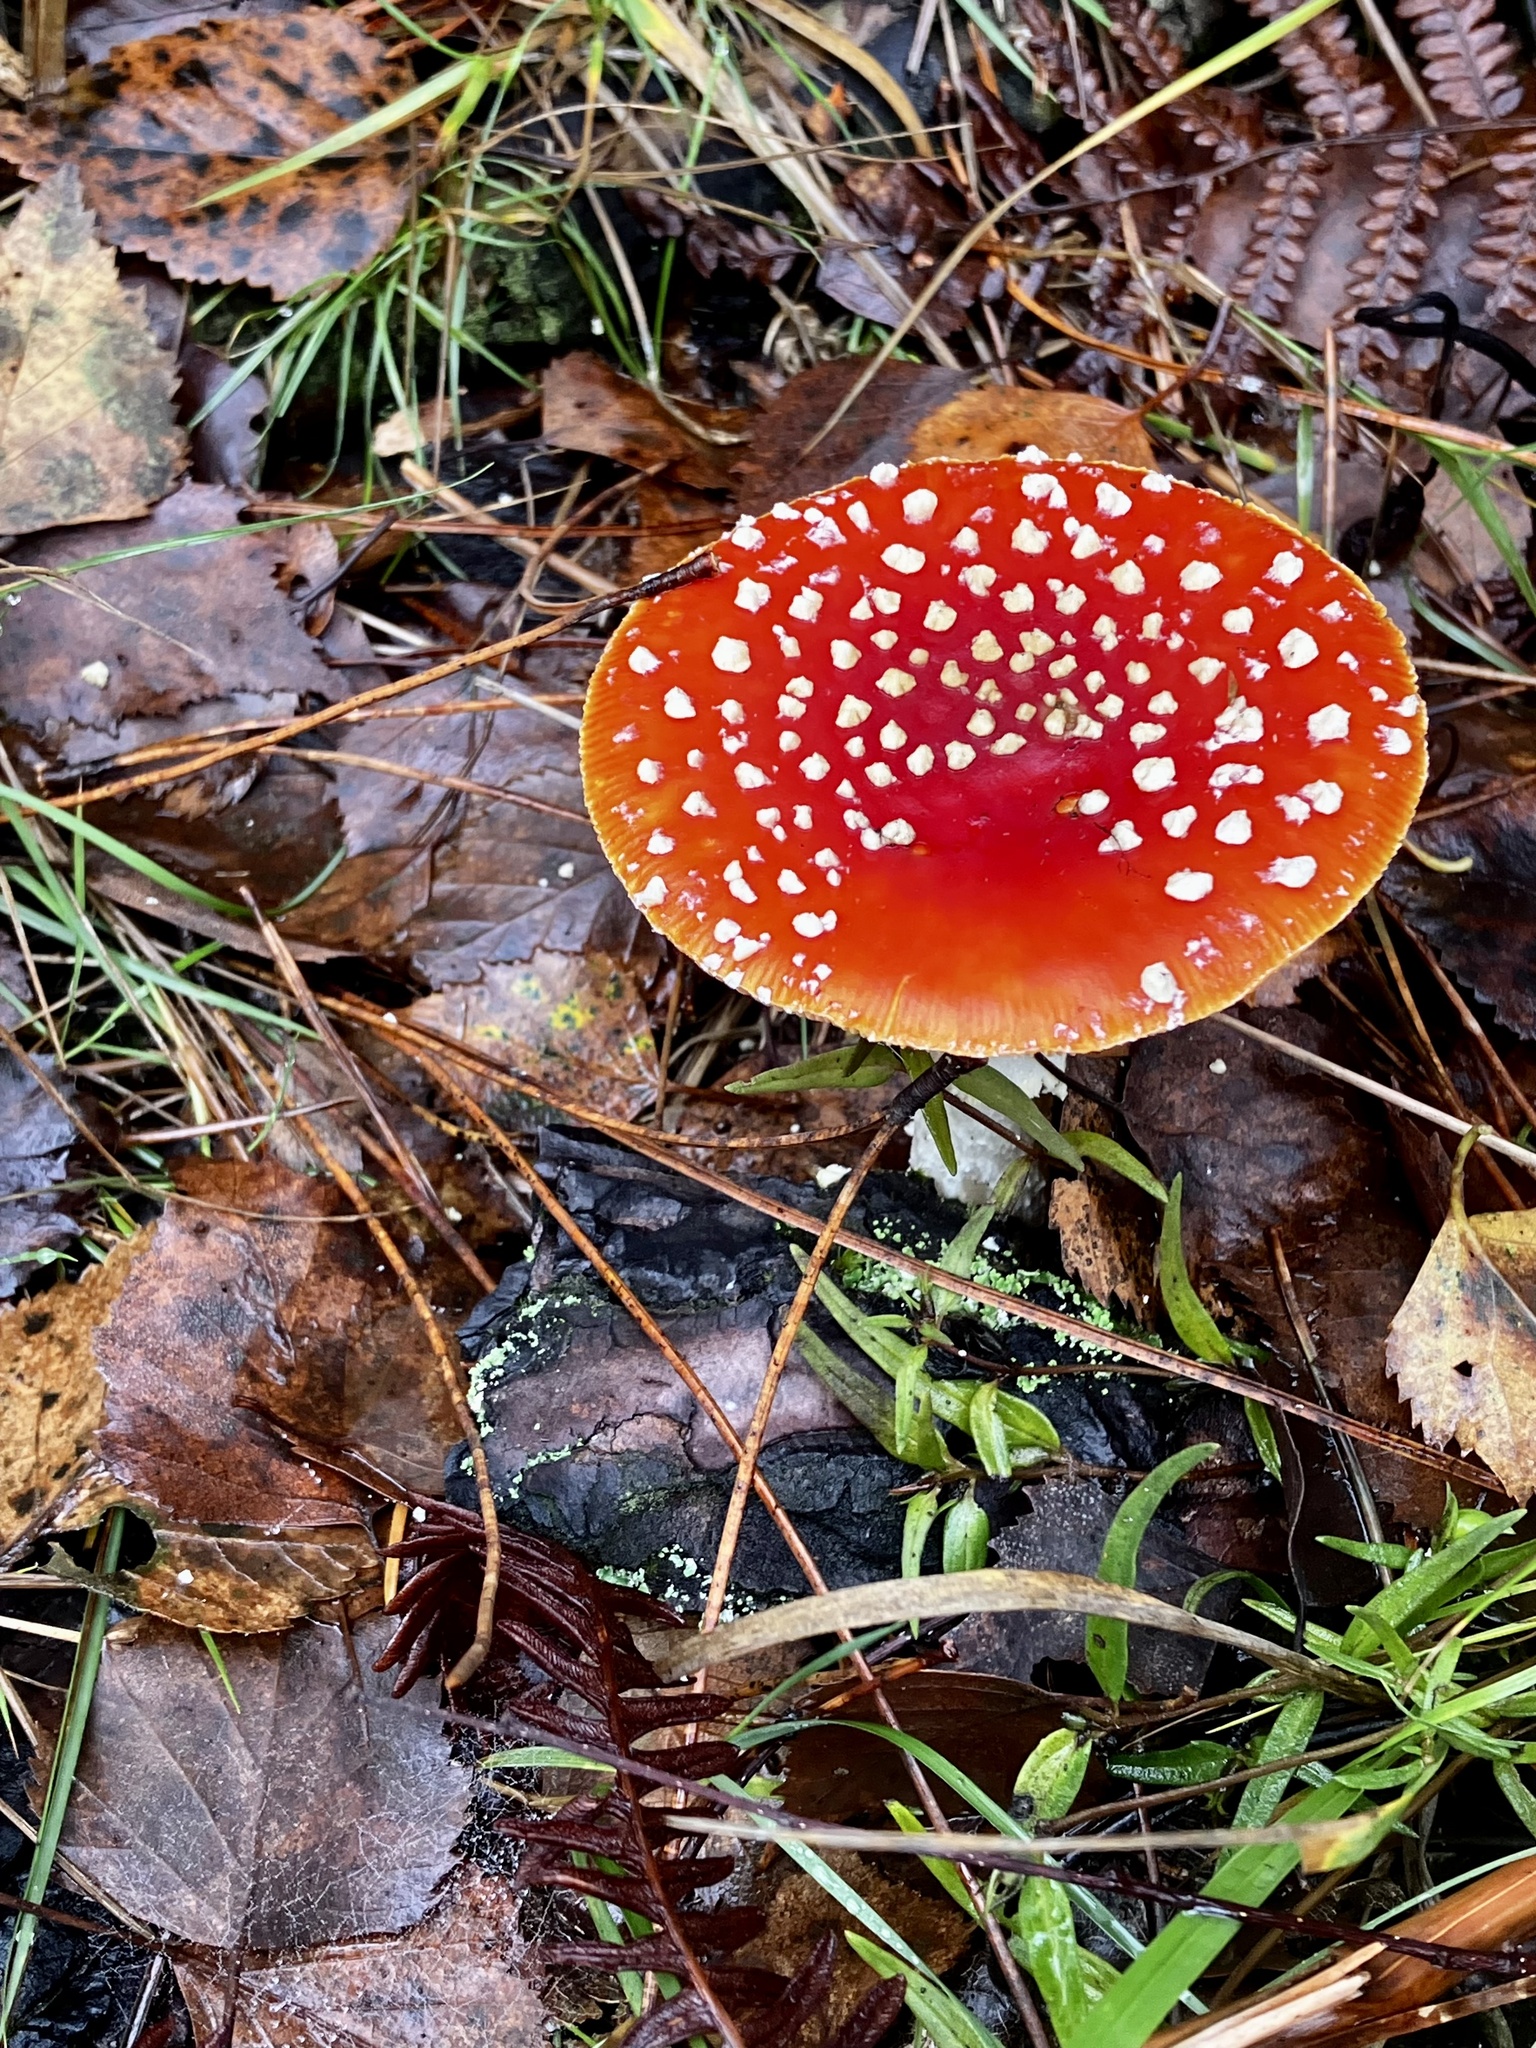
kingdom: Fungi
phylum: Basidiomycota
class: Agaricomycetes
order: Agaricales
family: Amanitaceae
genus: Amanita
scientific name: Amanita muscaria
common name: Fly agaric
